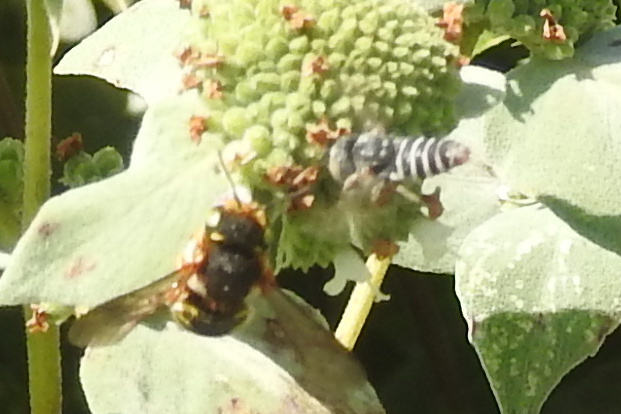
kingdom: Animalia
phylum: Arthropoda
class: Insecta
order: Hymenoptera
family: Megachilidae
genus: Coelioxys
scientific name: Coelioxys coturnix
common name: Red-tailed cuckoo-leaf-cutter bee
